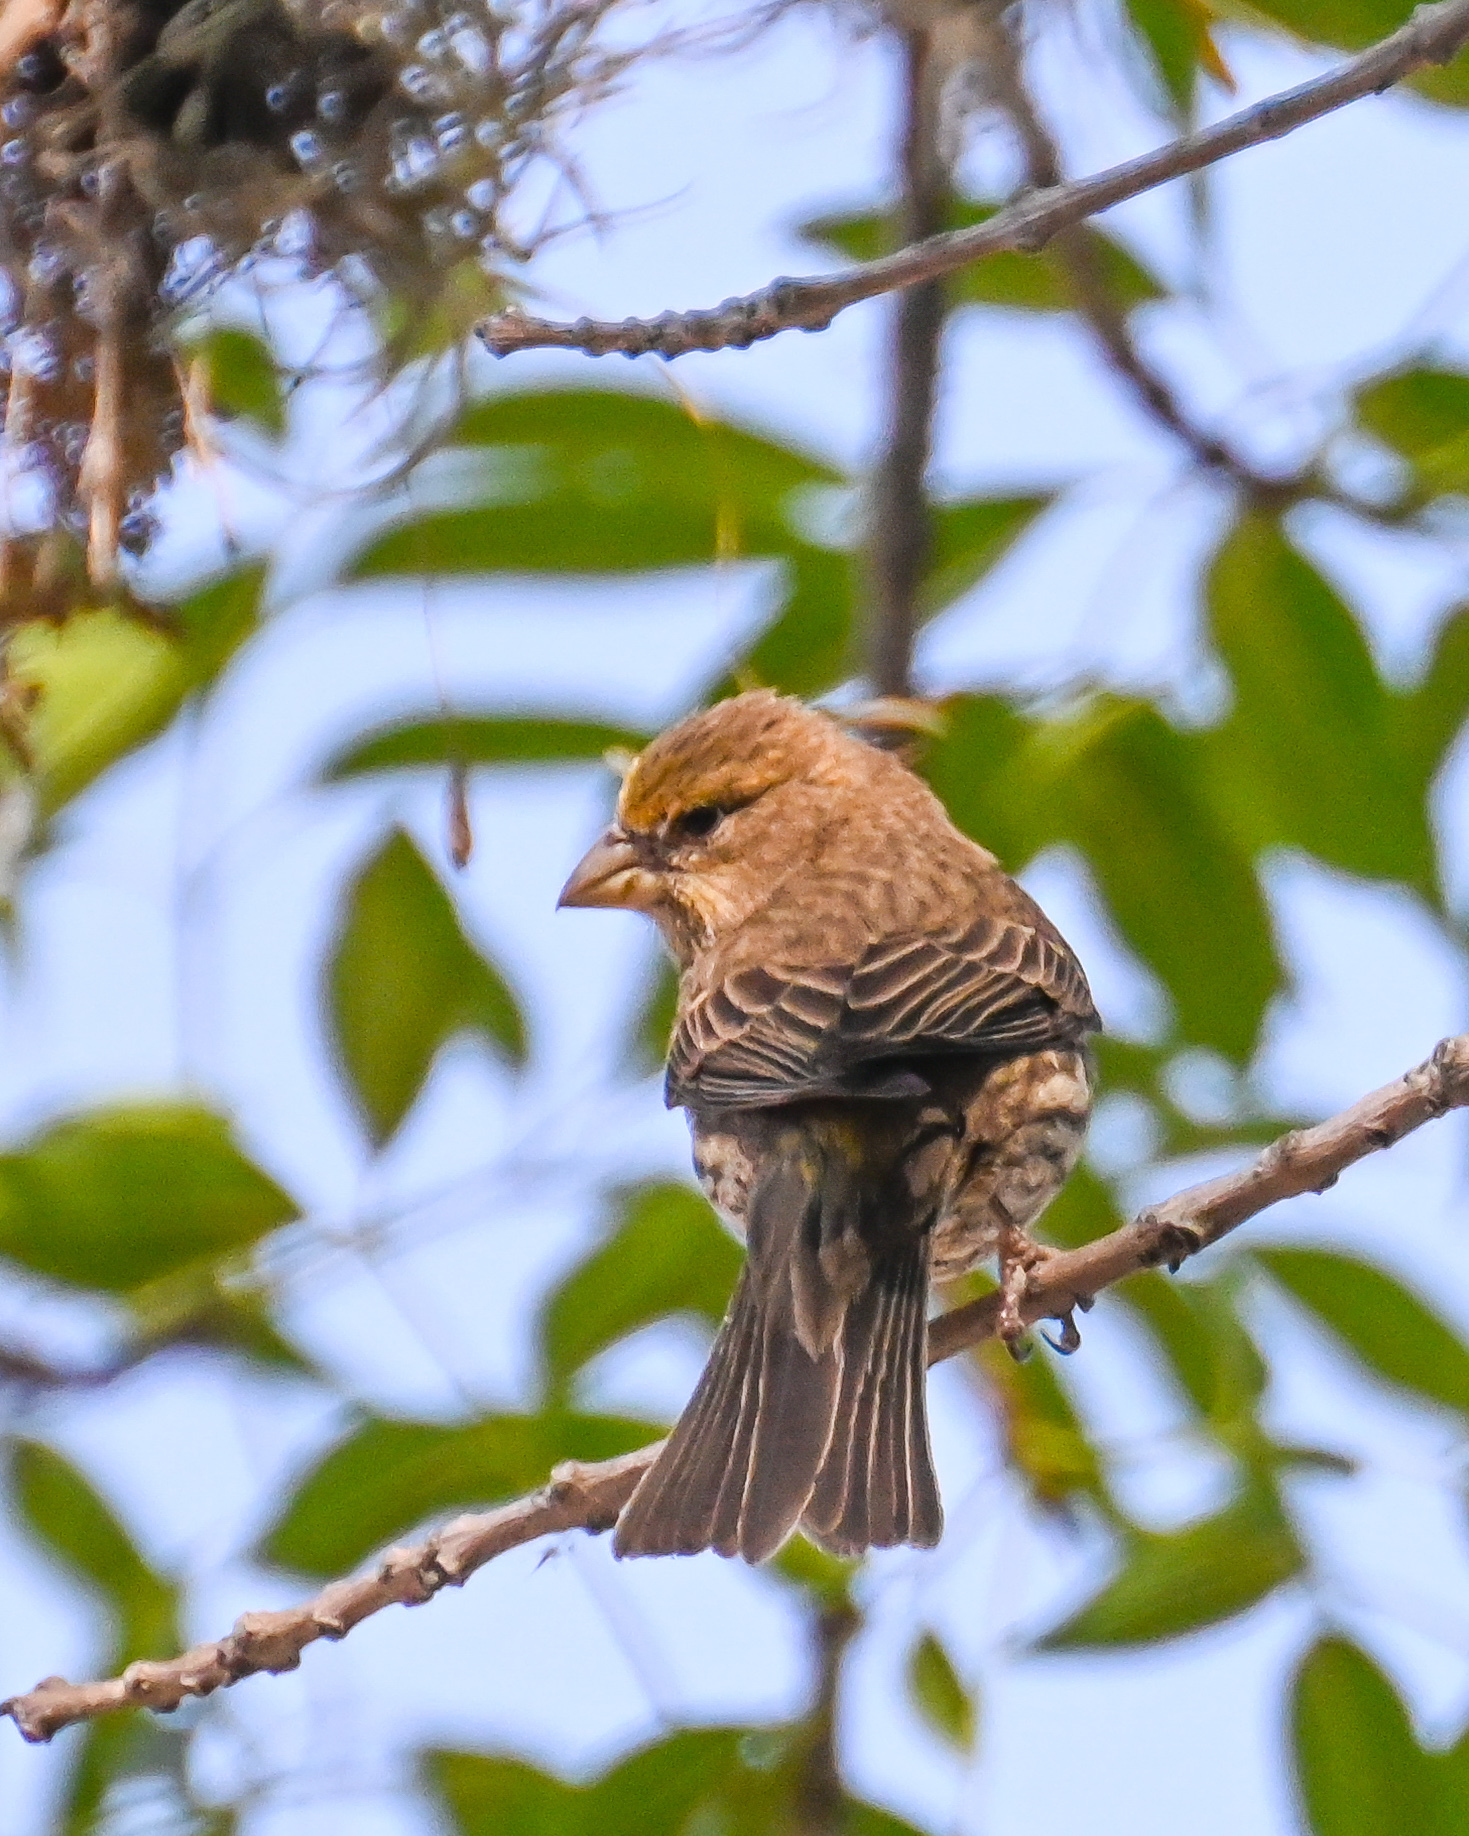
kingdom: Animalia
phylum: Chordata
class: Aves
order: Passeriformes
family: Fringillidae
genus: Haemorhous
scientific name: Haemorhous mexicanus
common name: House finch
